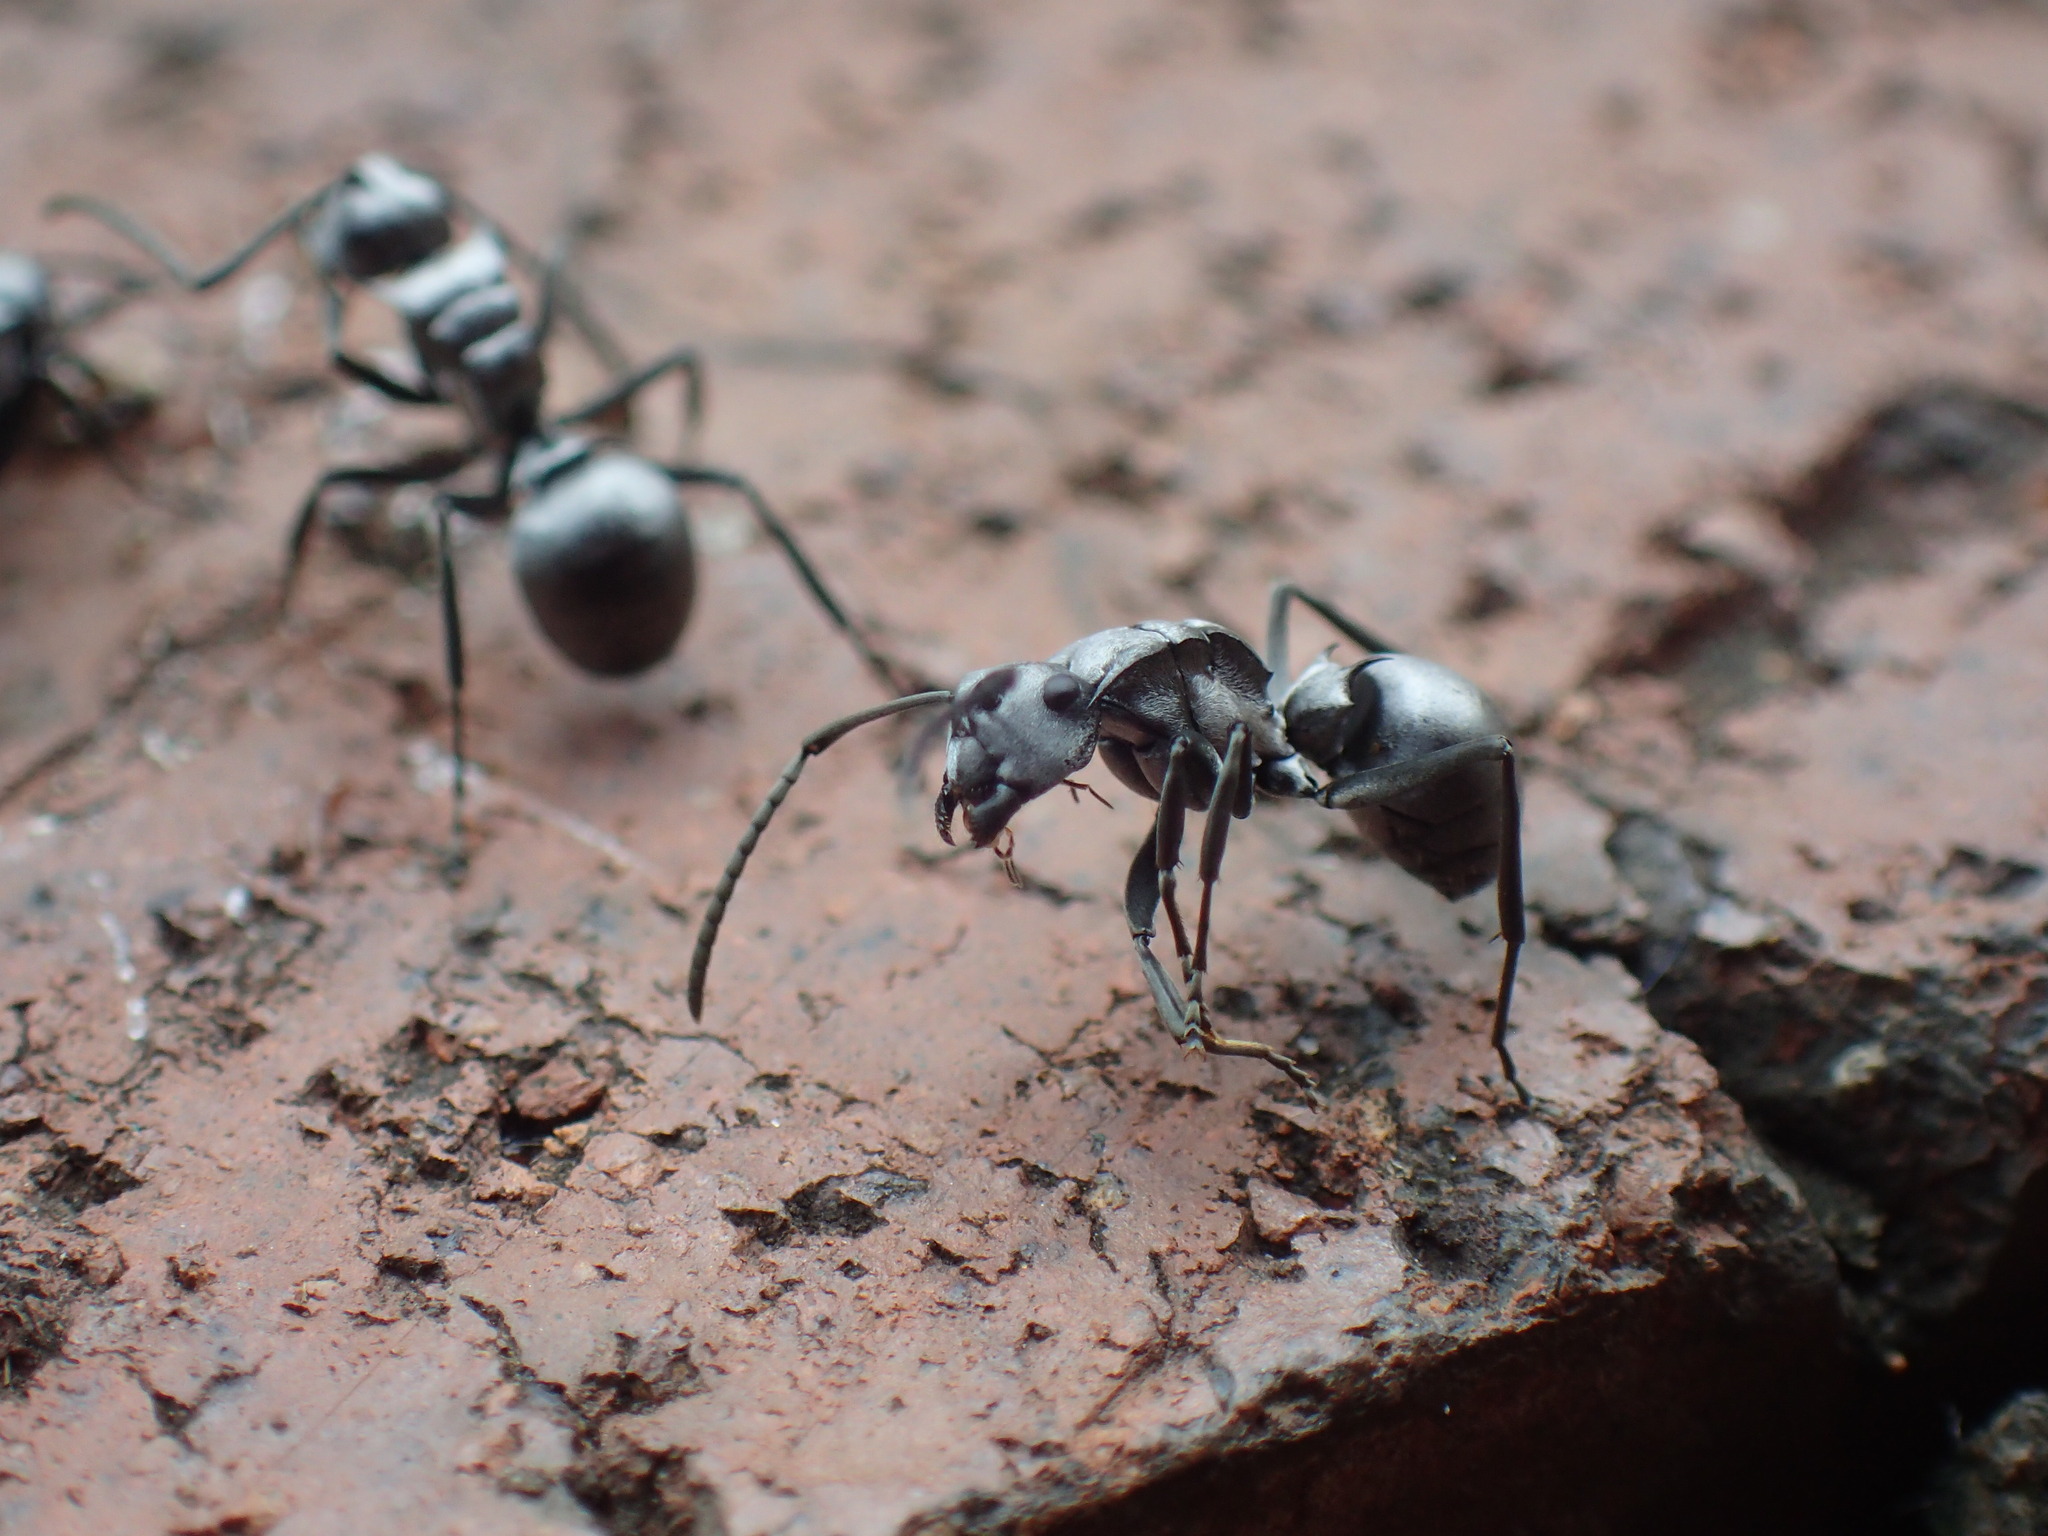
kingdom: Animalia
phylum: Arthropoda
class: Insecta
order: Hymenoptera
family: Formicidae
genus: Polyrhachis
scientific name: Polyrhachis schlueteri
